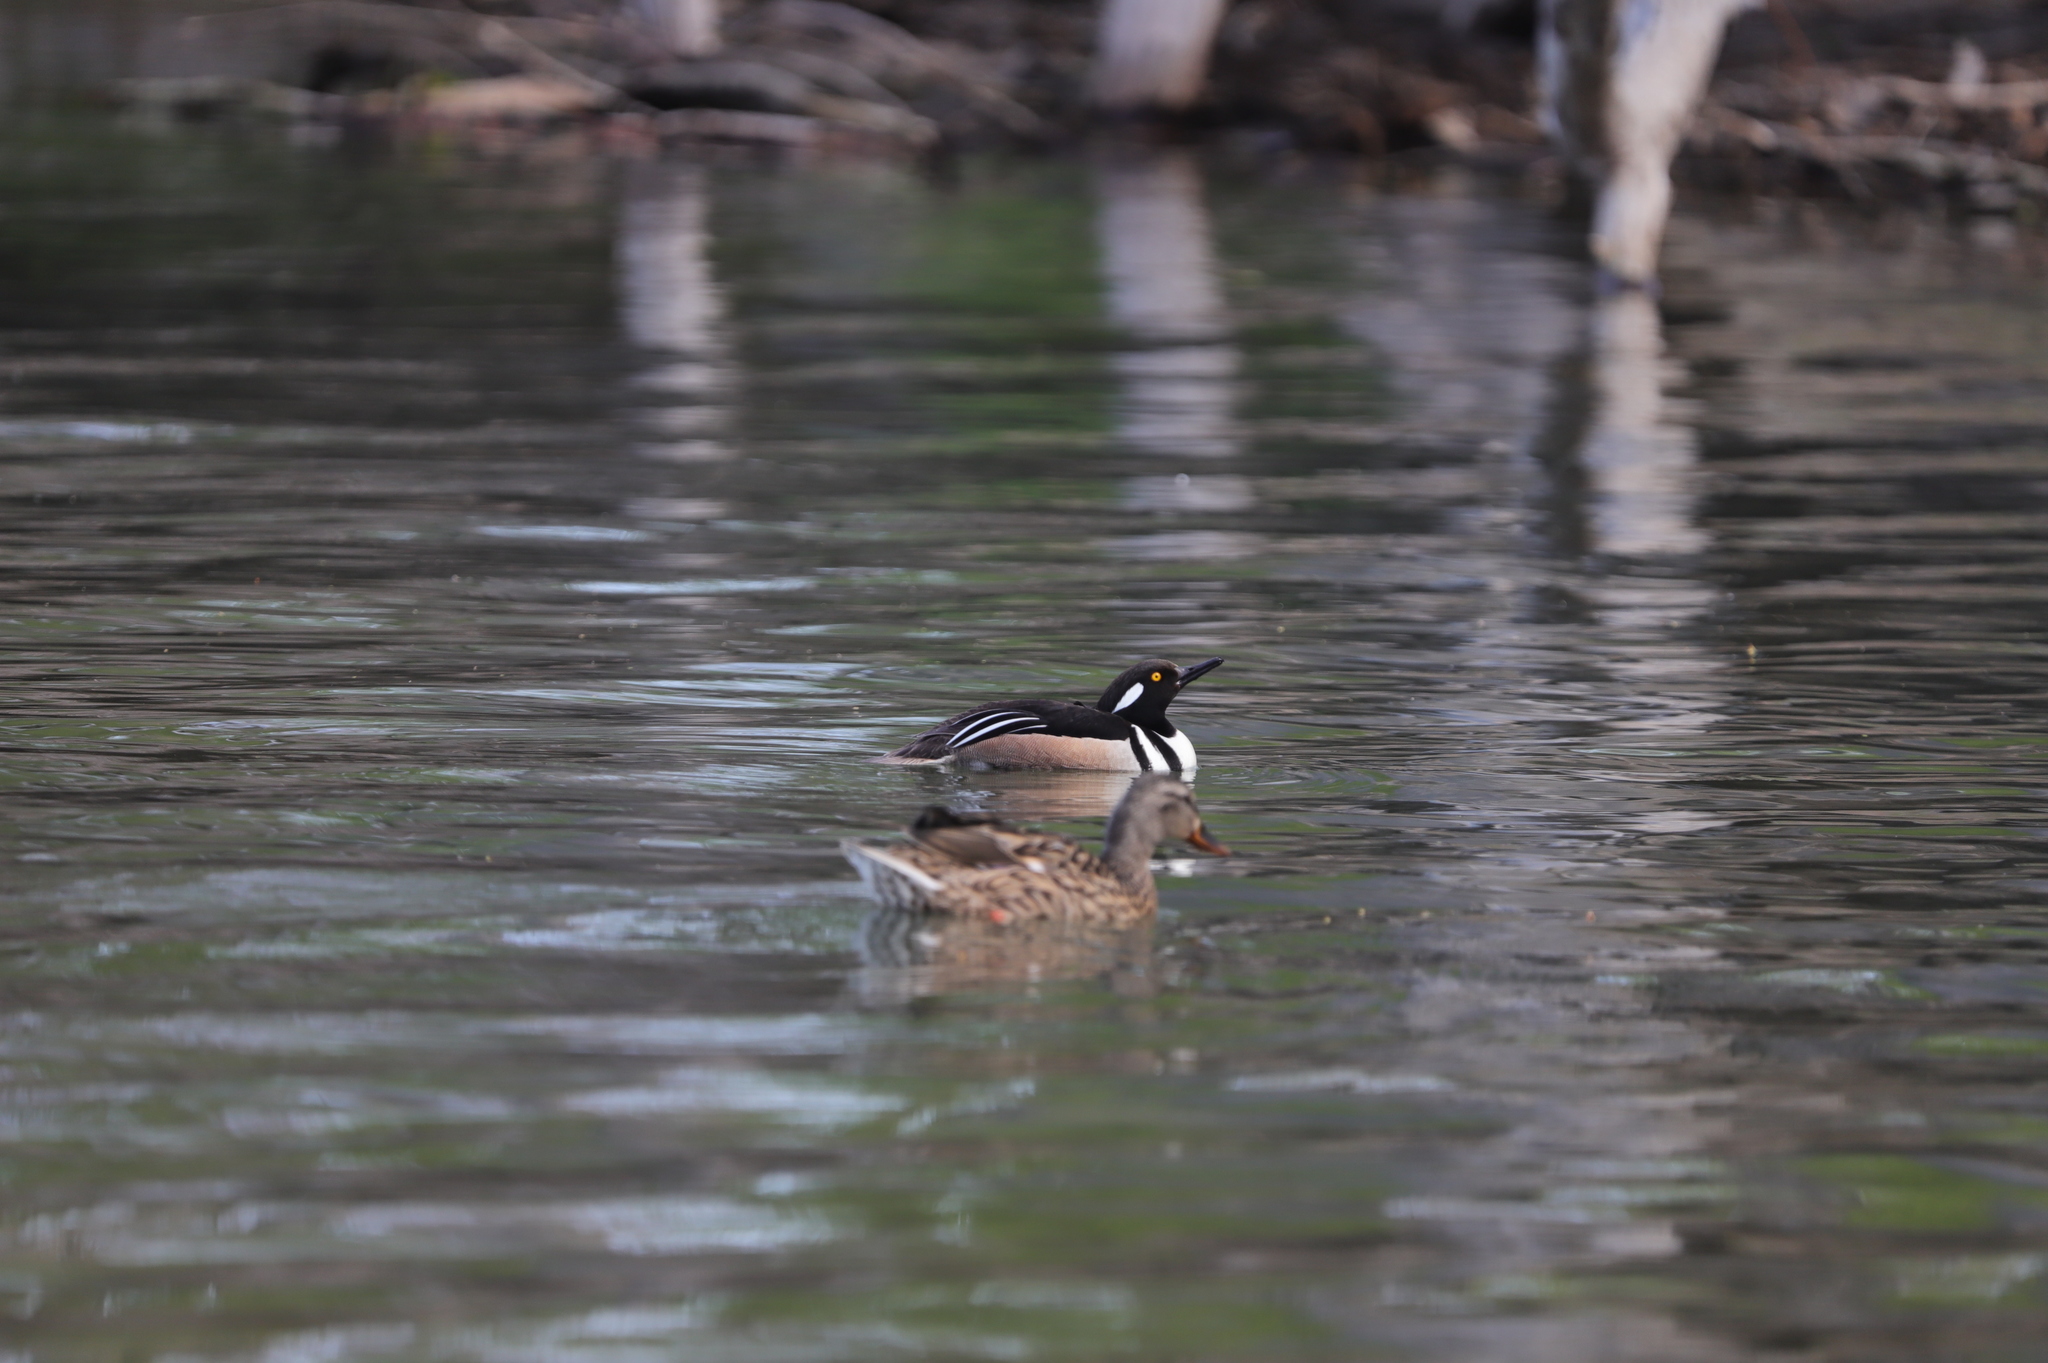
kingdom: Animalia
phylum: Chordata
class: Aves
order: Anseriformes
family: Anatidae
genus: Anas
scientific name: Anas platyrhynchos
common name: Mallard
